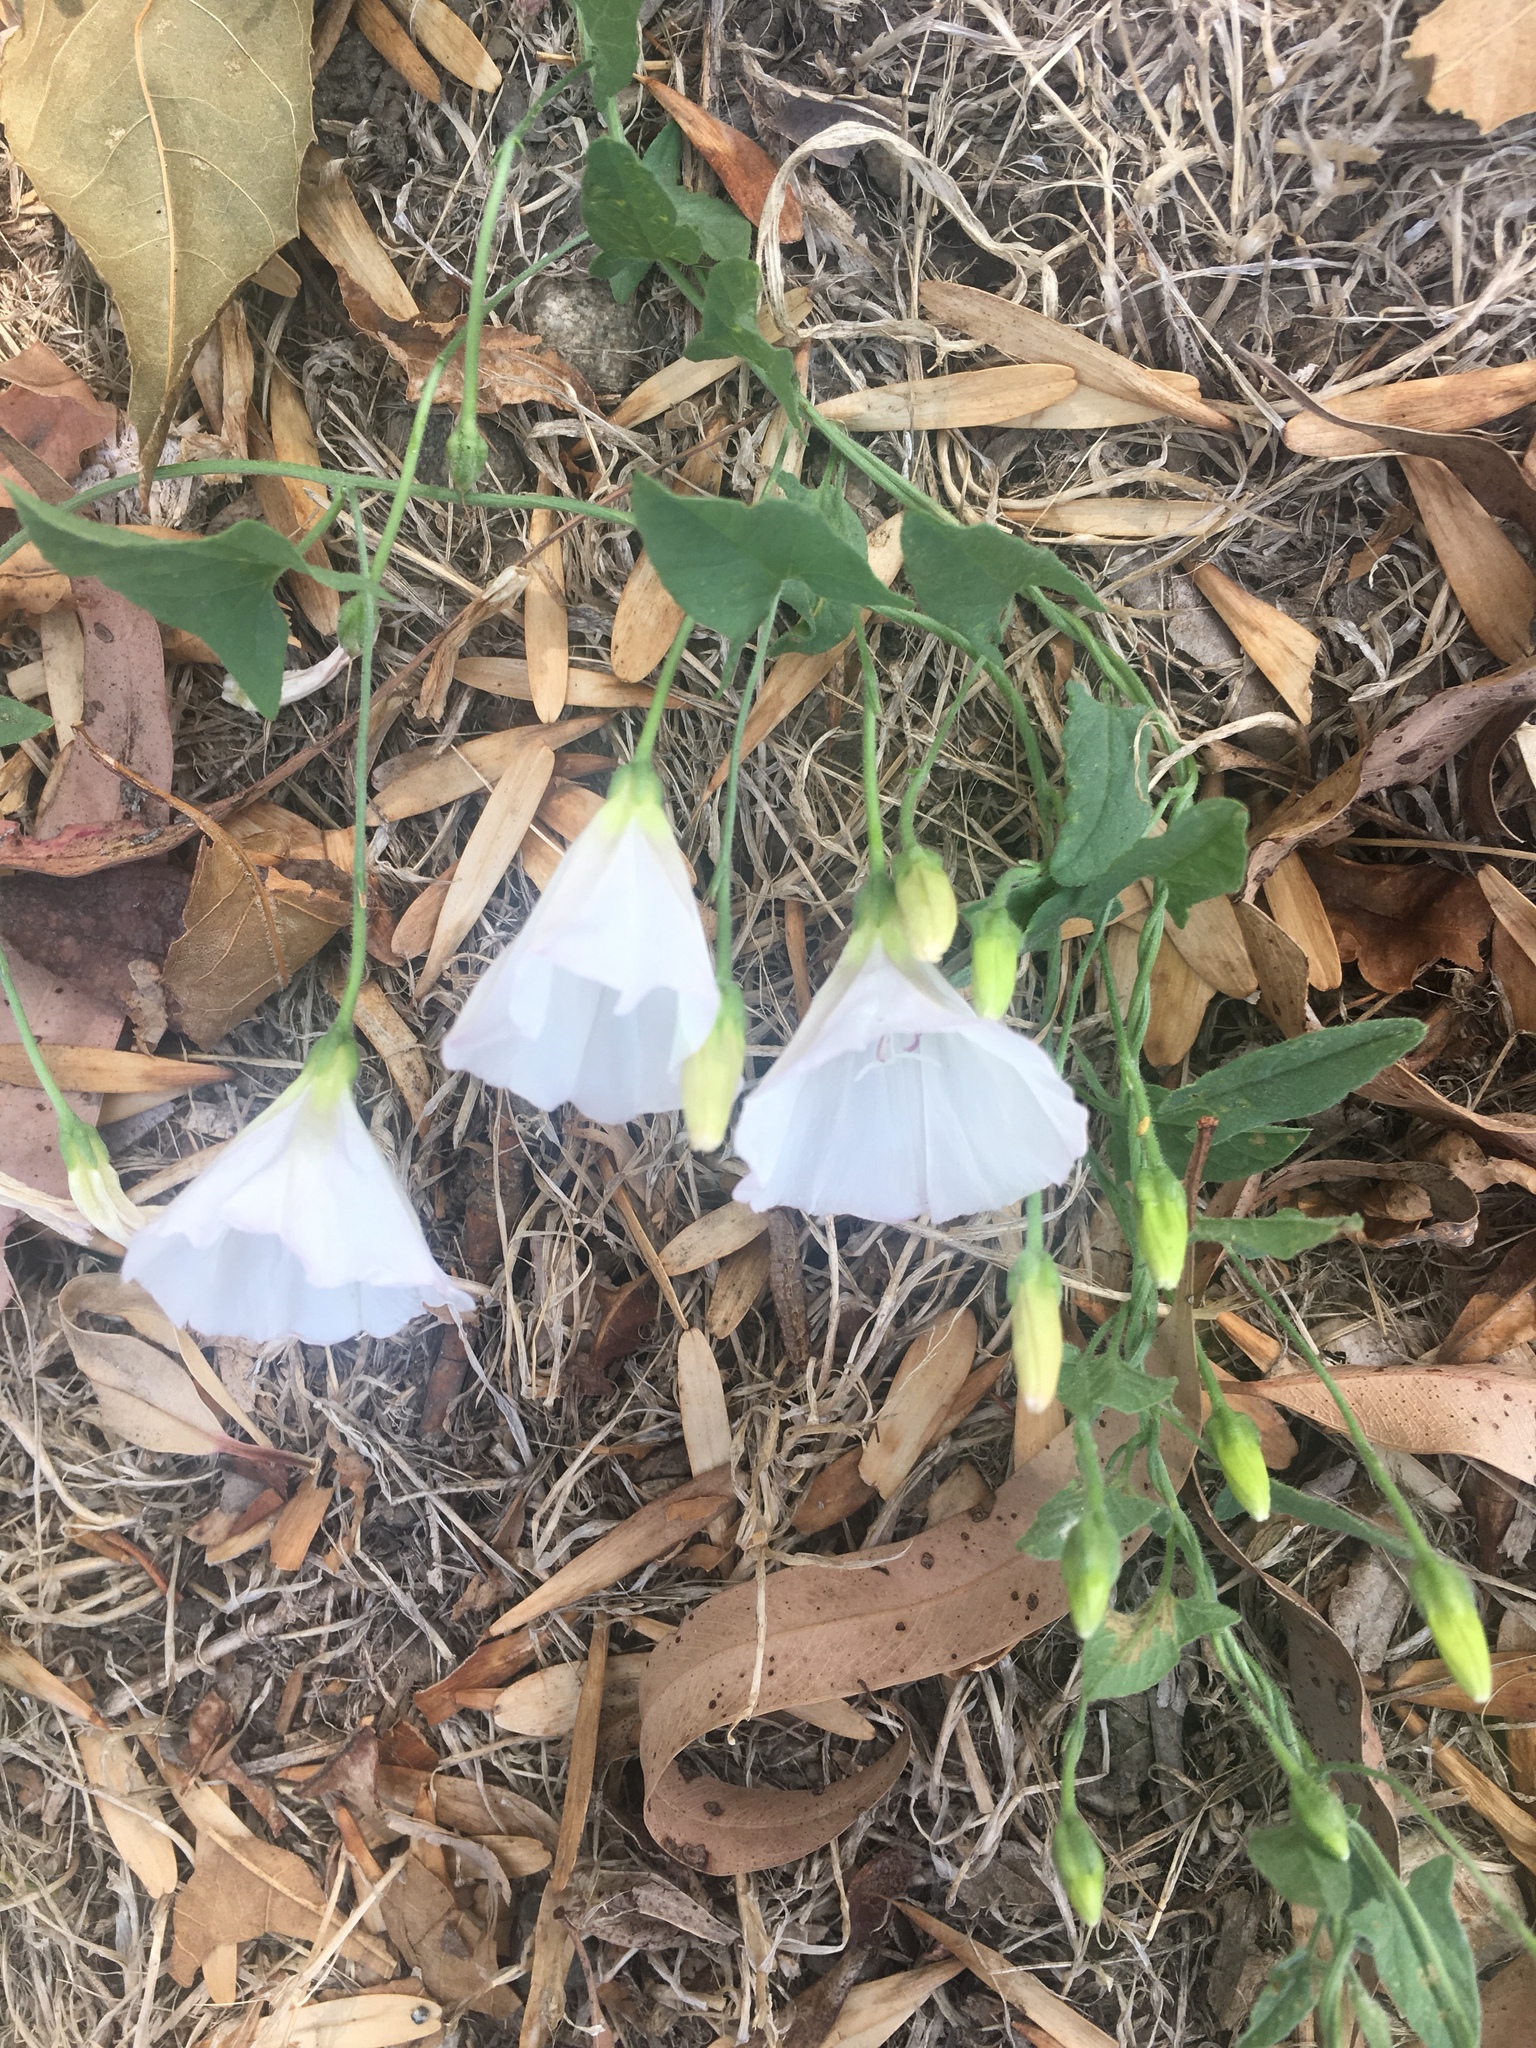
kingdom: Plantae
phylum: Tracheophyta
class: Magnoliopsida
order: Solanales
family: Convolvulaceae
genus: Convolvulus
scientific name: Convolvulus arvensis
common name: Field bindweed
